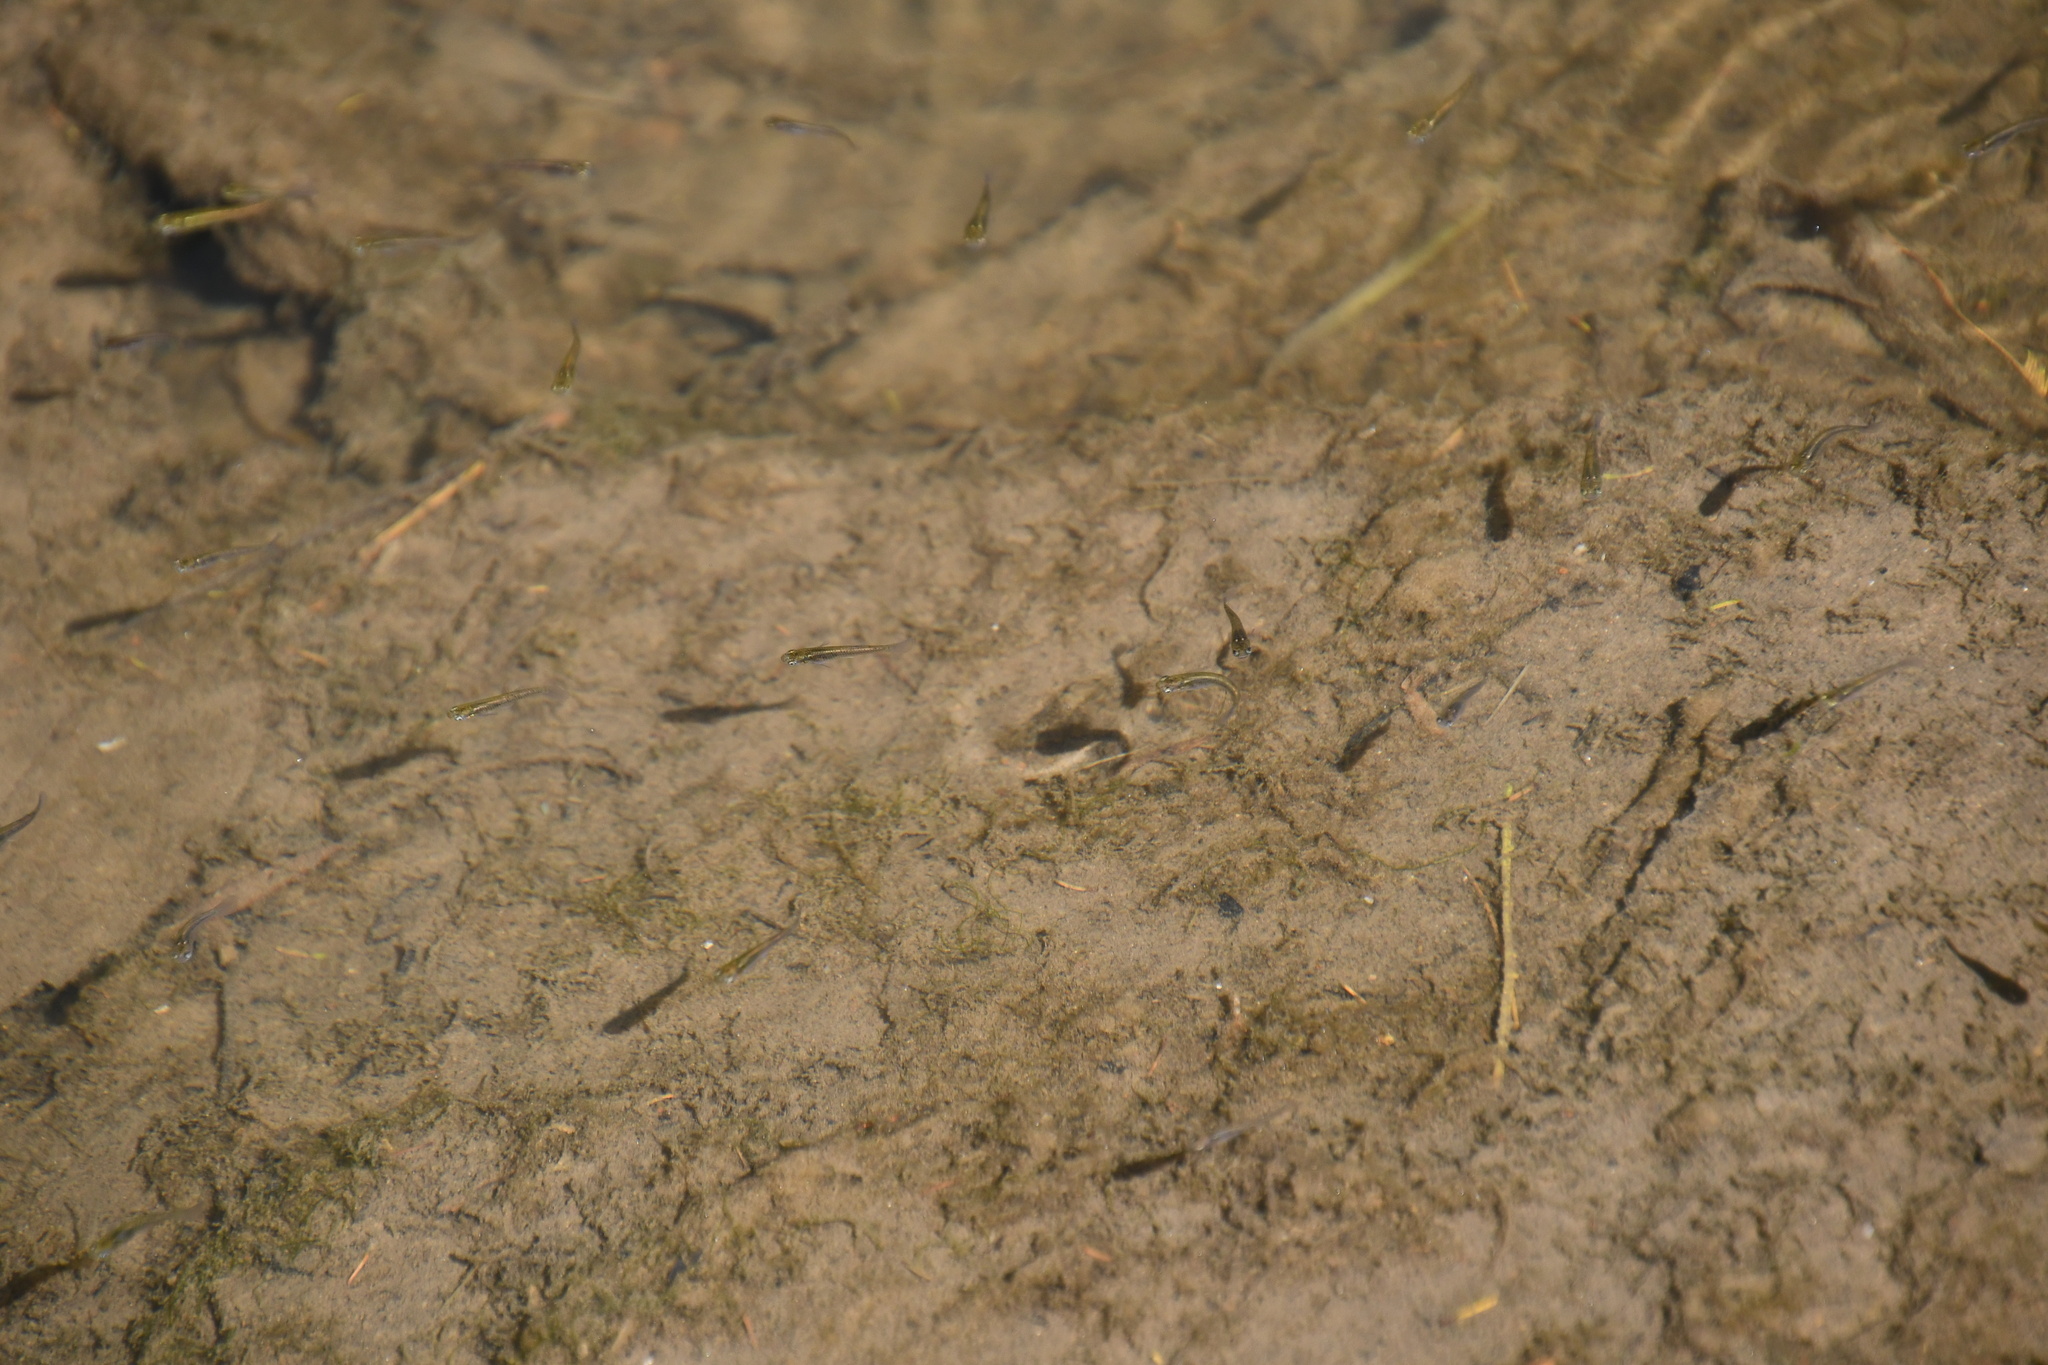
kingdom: Animalia
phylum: Chordata
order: Cyprinodontiformes
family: Poeciliidae
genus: Gambusia
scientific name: Gambusia holbrooki
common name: Eastern mosquitofish
